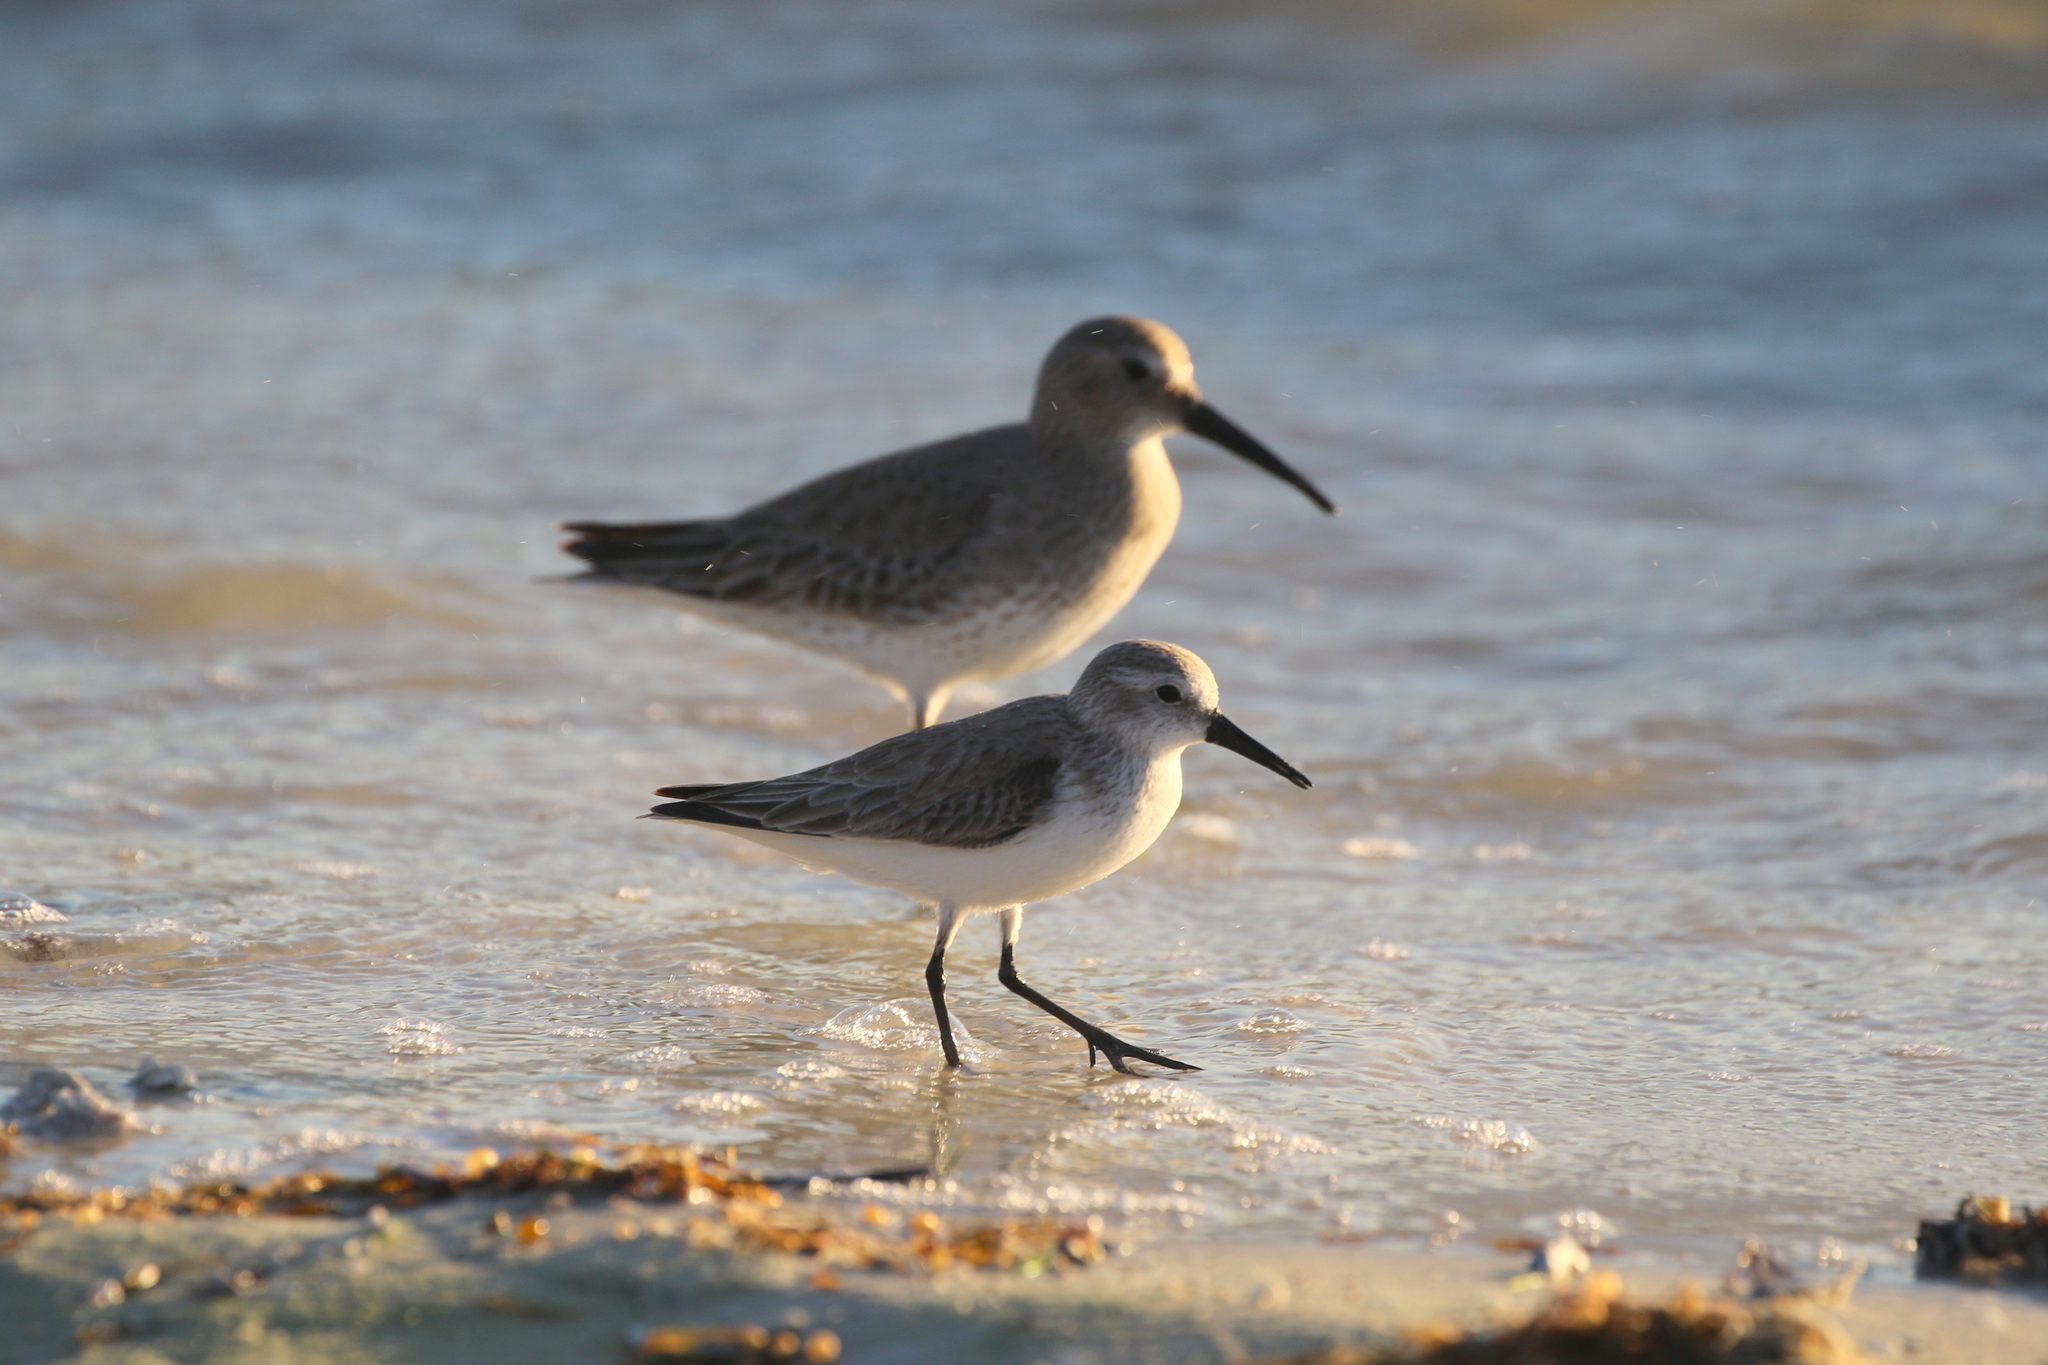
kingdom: Animalia
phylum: Chordata
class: Aves
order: Charadriiformes
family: Scolopacidae
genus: Calidris
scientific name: Calidris mauri
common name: Western sandpiper
